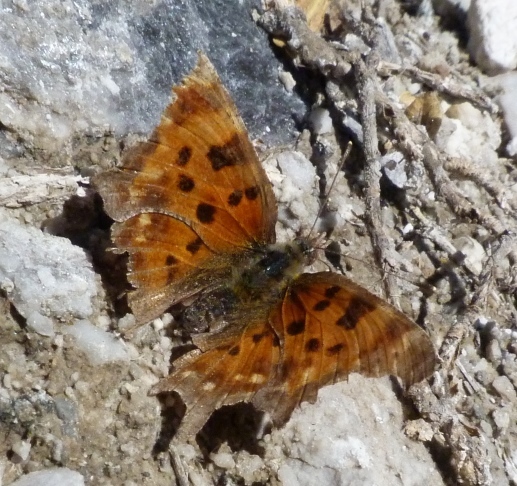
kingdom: Animalia
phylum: Arthropoda
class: Insecta
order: Lepidoptera
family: Nymphalidae
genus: Polygonia
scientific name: Polygonia c-album
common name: Comma
